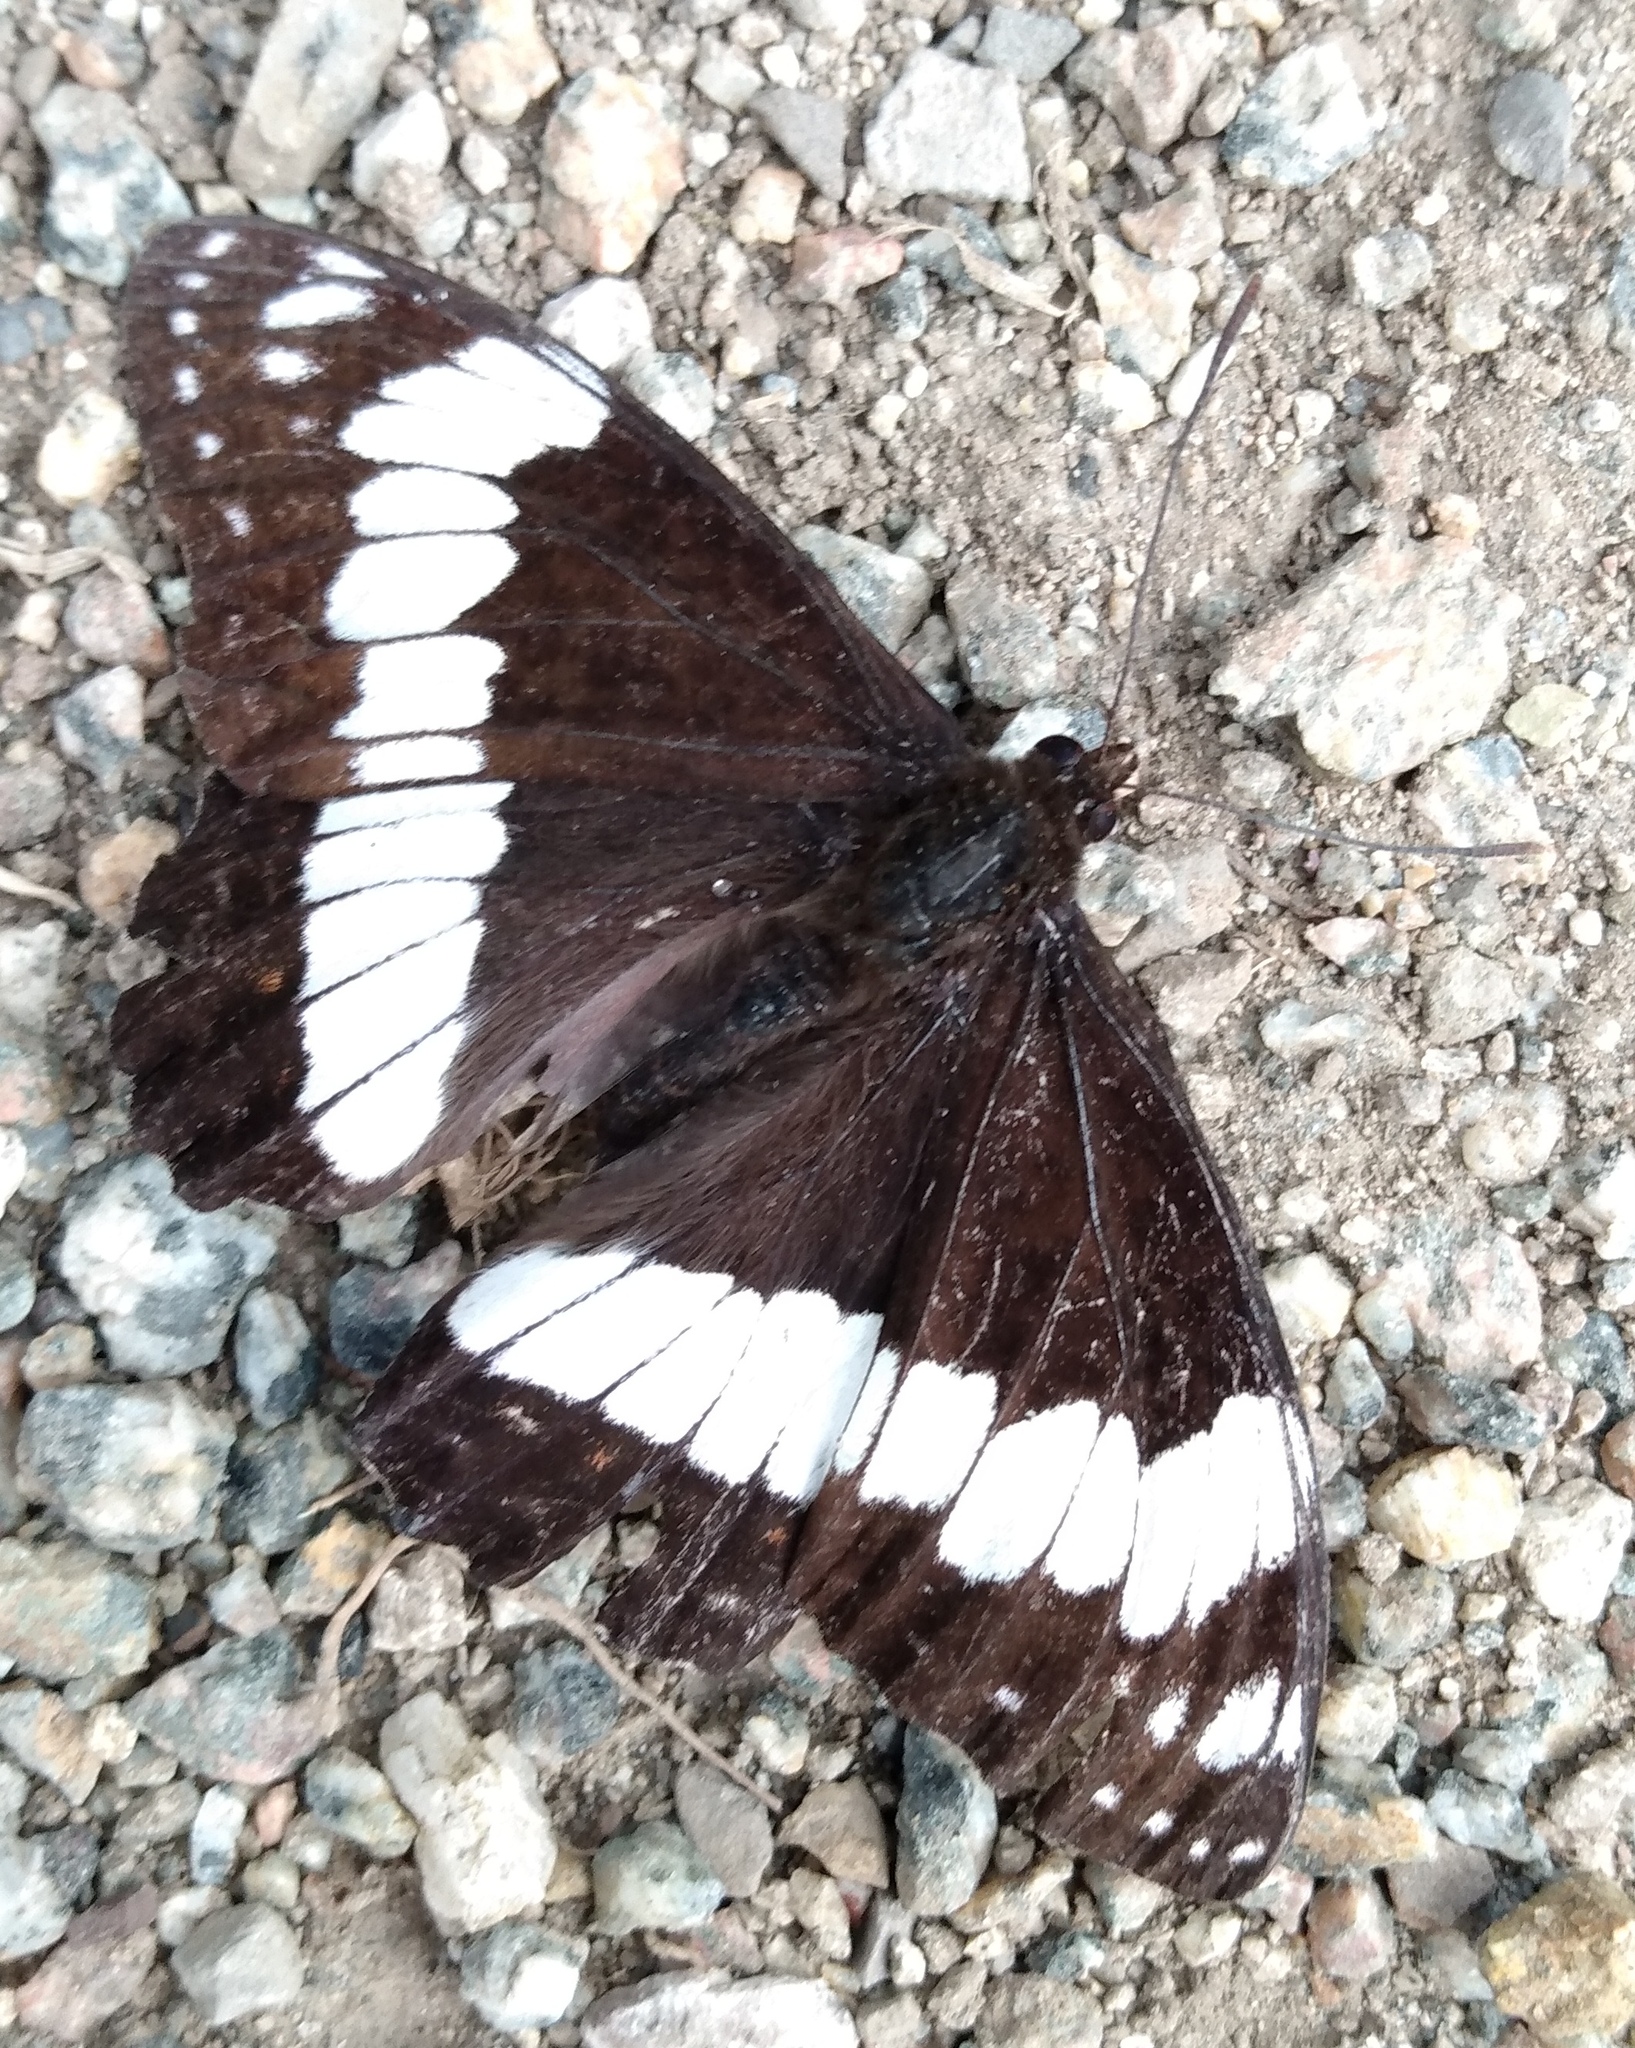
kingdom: Animalia
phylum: Arthropoda
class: Insecta
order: Lepidoptera
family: Nymphalidae
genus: Limenitis
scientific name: Limenitis weidemeyerii
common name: Weidemeyer's admiral
